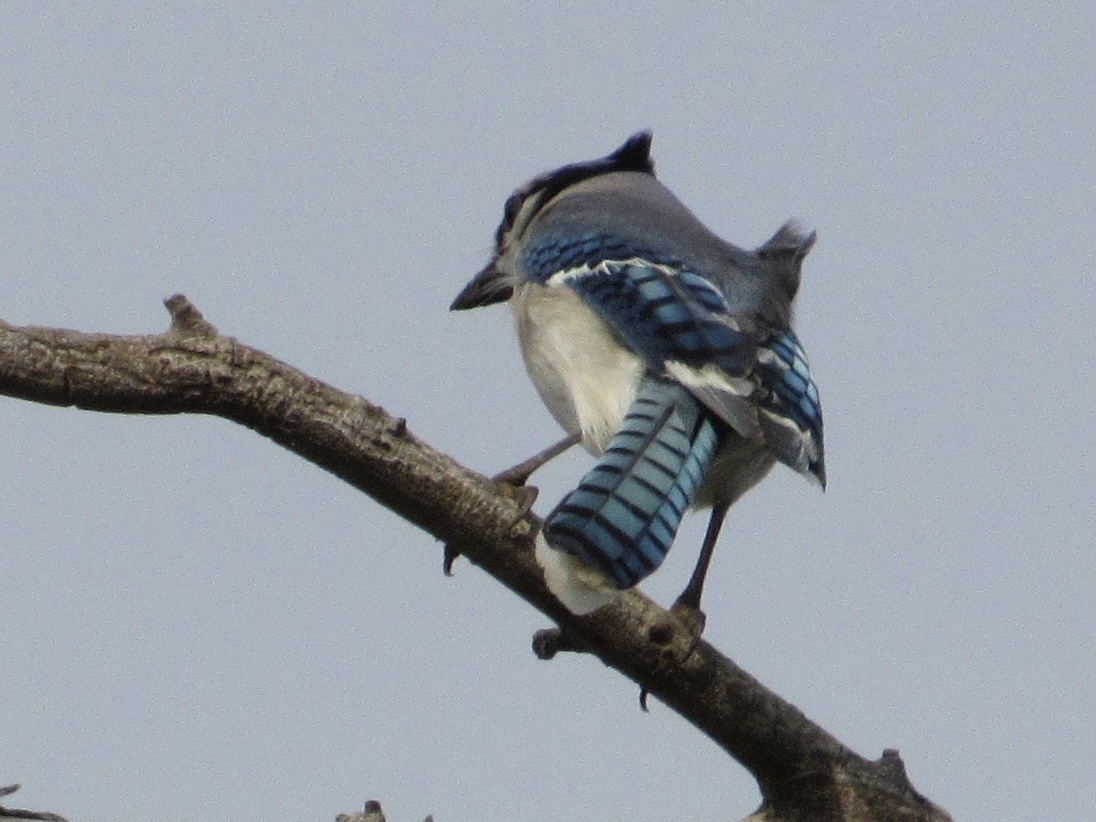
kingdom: Animalia
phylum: Chordata
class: Aves
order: Passeriformes
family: Corvidae
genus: Cyanocitta
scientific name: Cyanocitta cristata
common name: Blue jay
